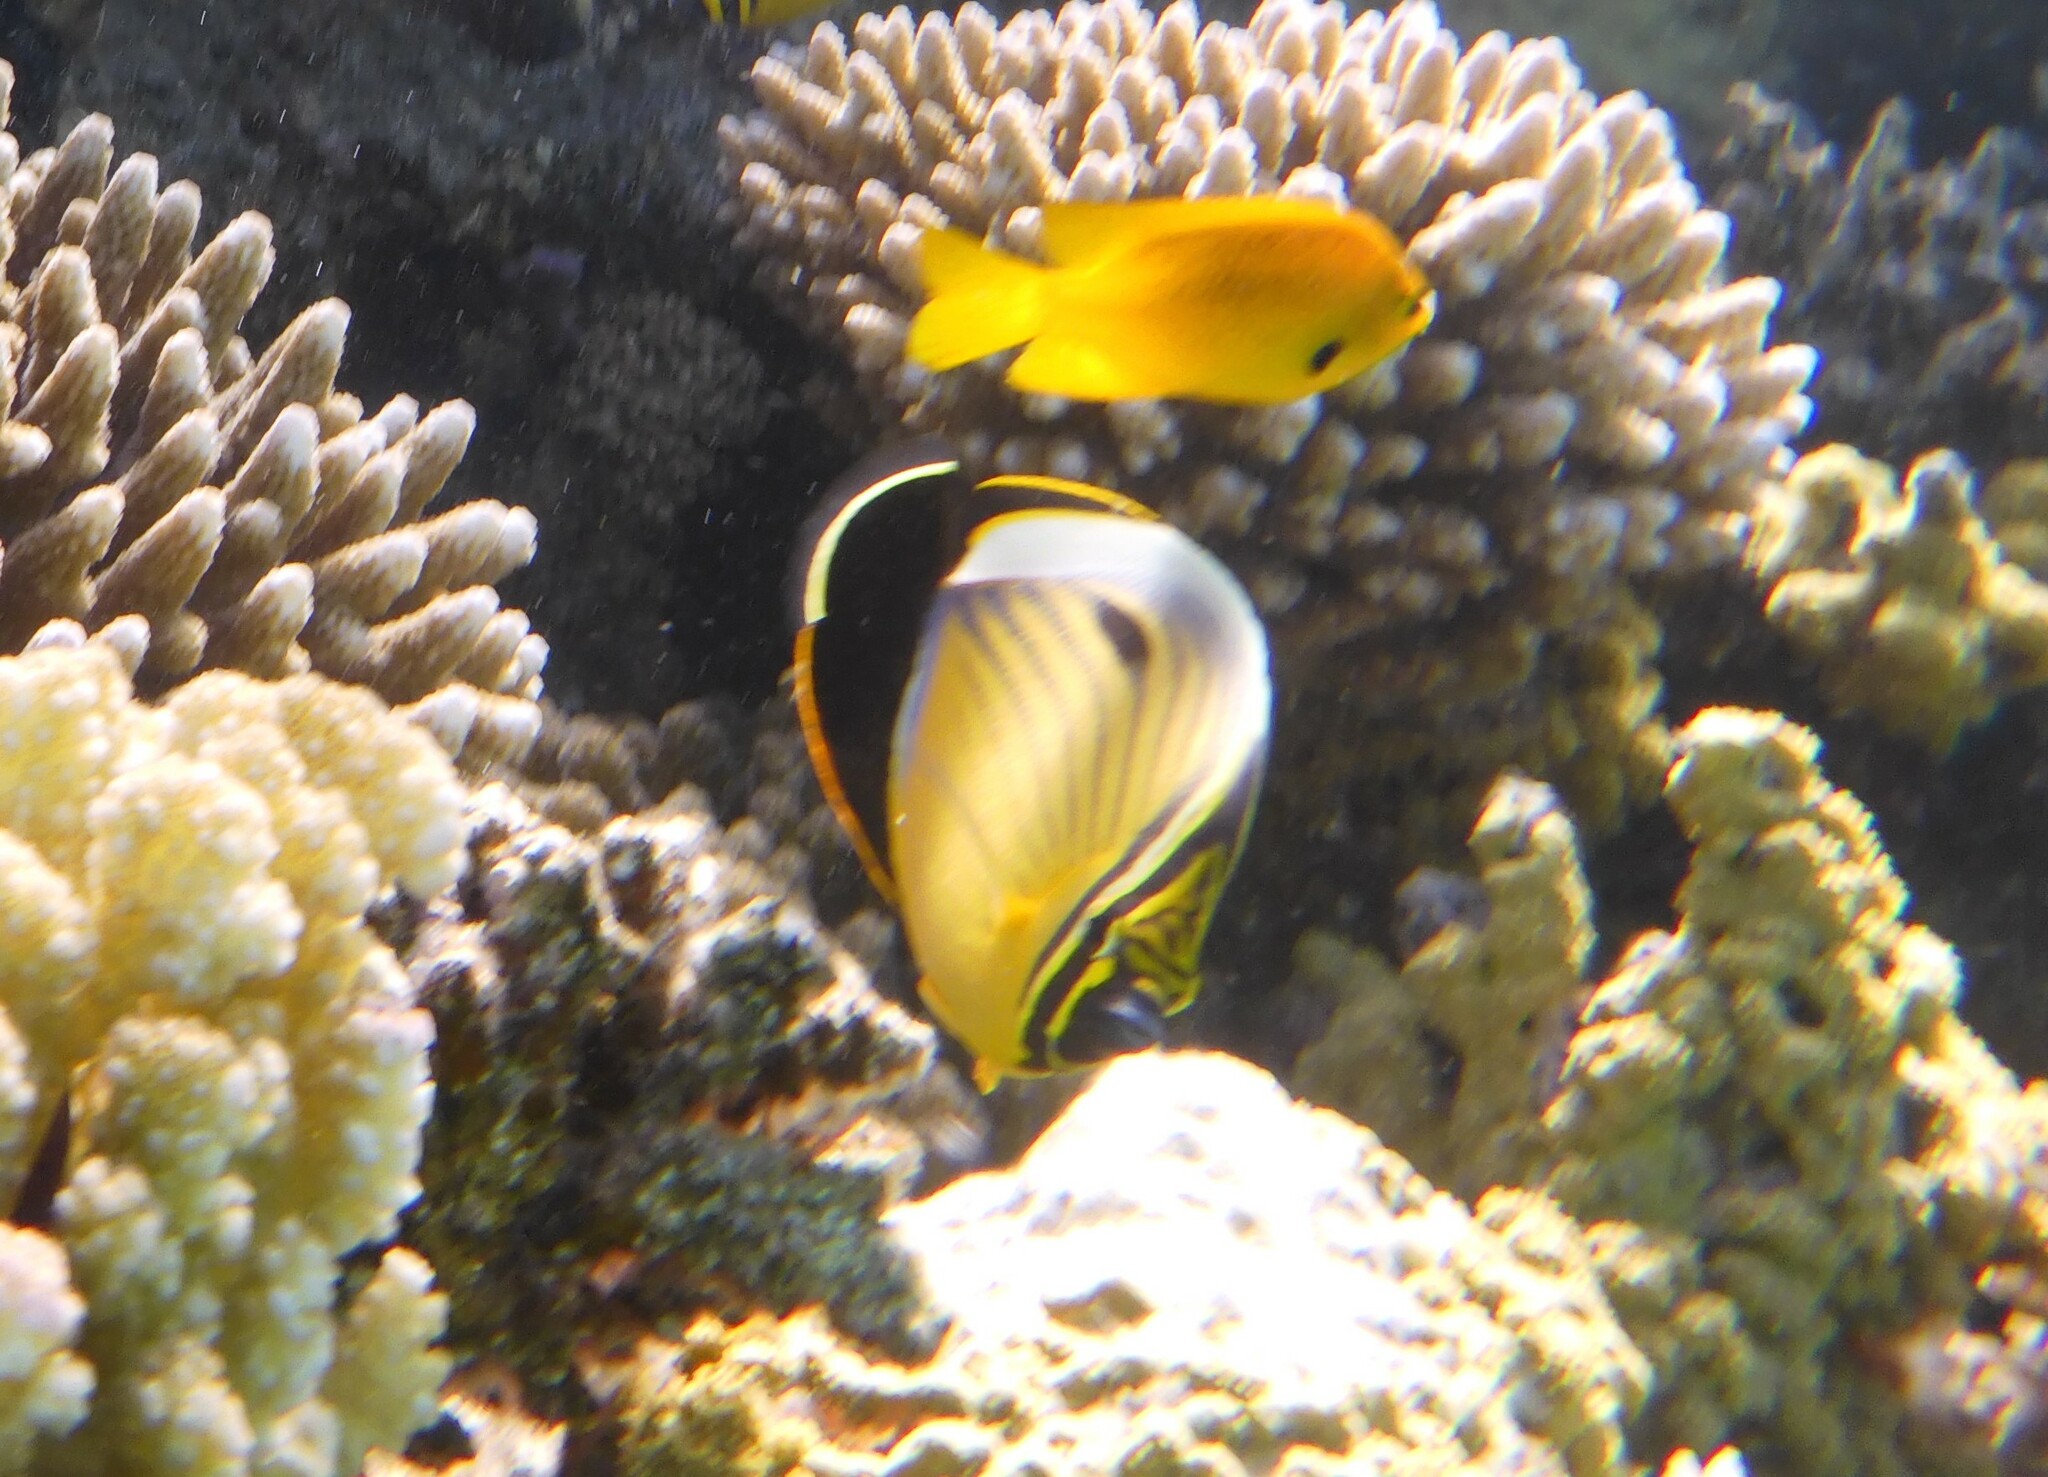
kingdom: Animalia
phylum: Chordata
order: Perciformes
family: Chaetodontidae
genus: Chaetodon
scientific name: Chaetodon austriacus
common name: Exquisite butterflyfish
